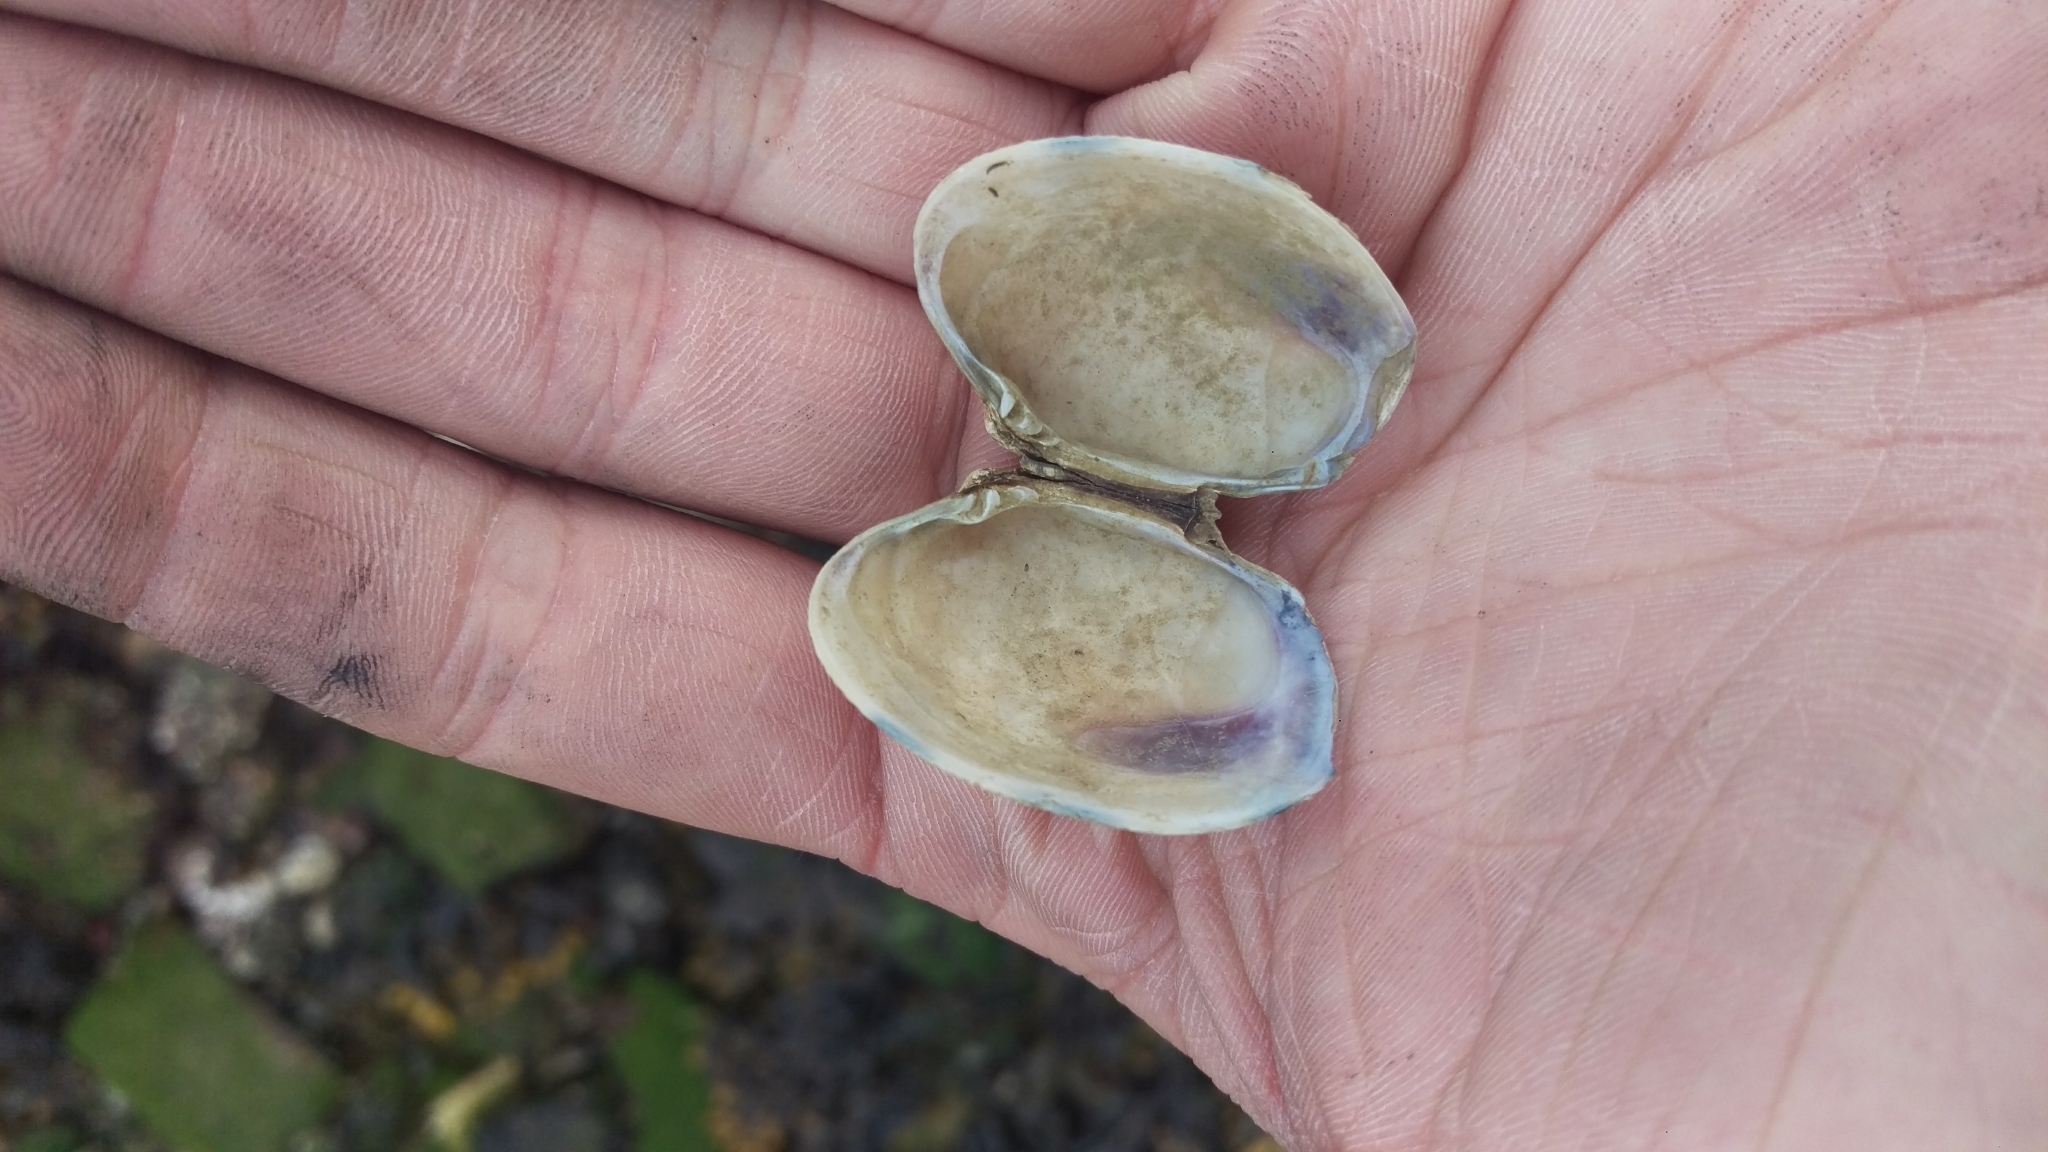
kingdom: Animalia
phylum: Mollusca
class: Bivalvia
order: Venerida
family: Veneridae
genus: Ruditapes
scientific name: Ruditapes philippinarum
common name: Manila clam
